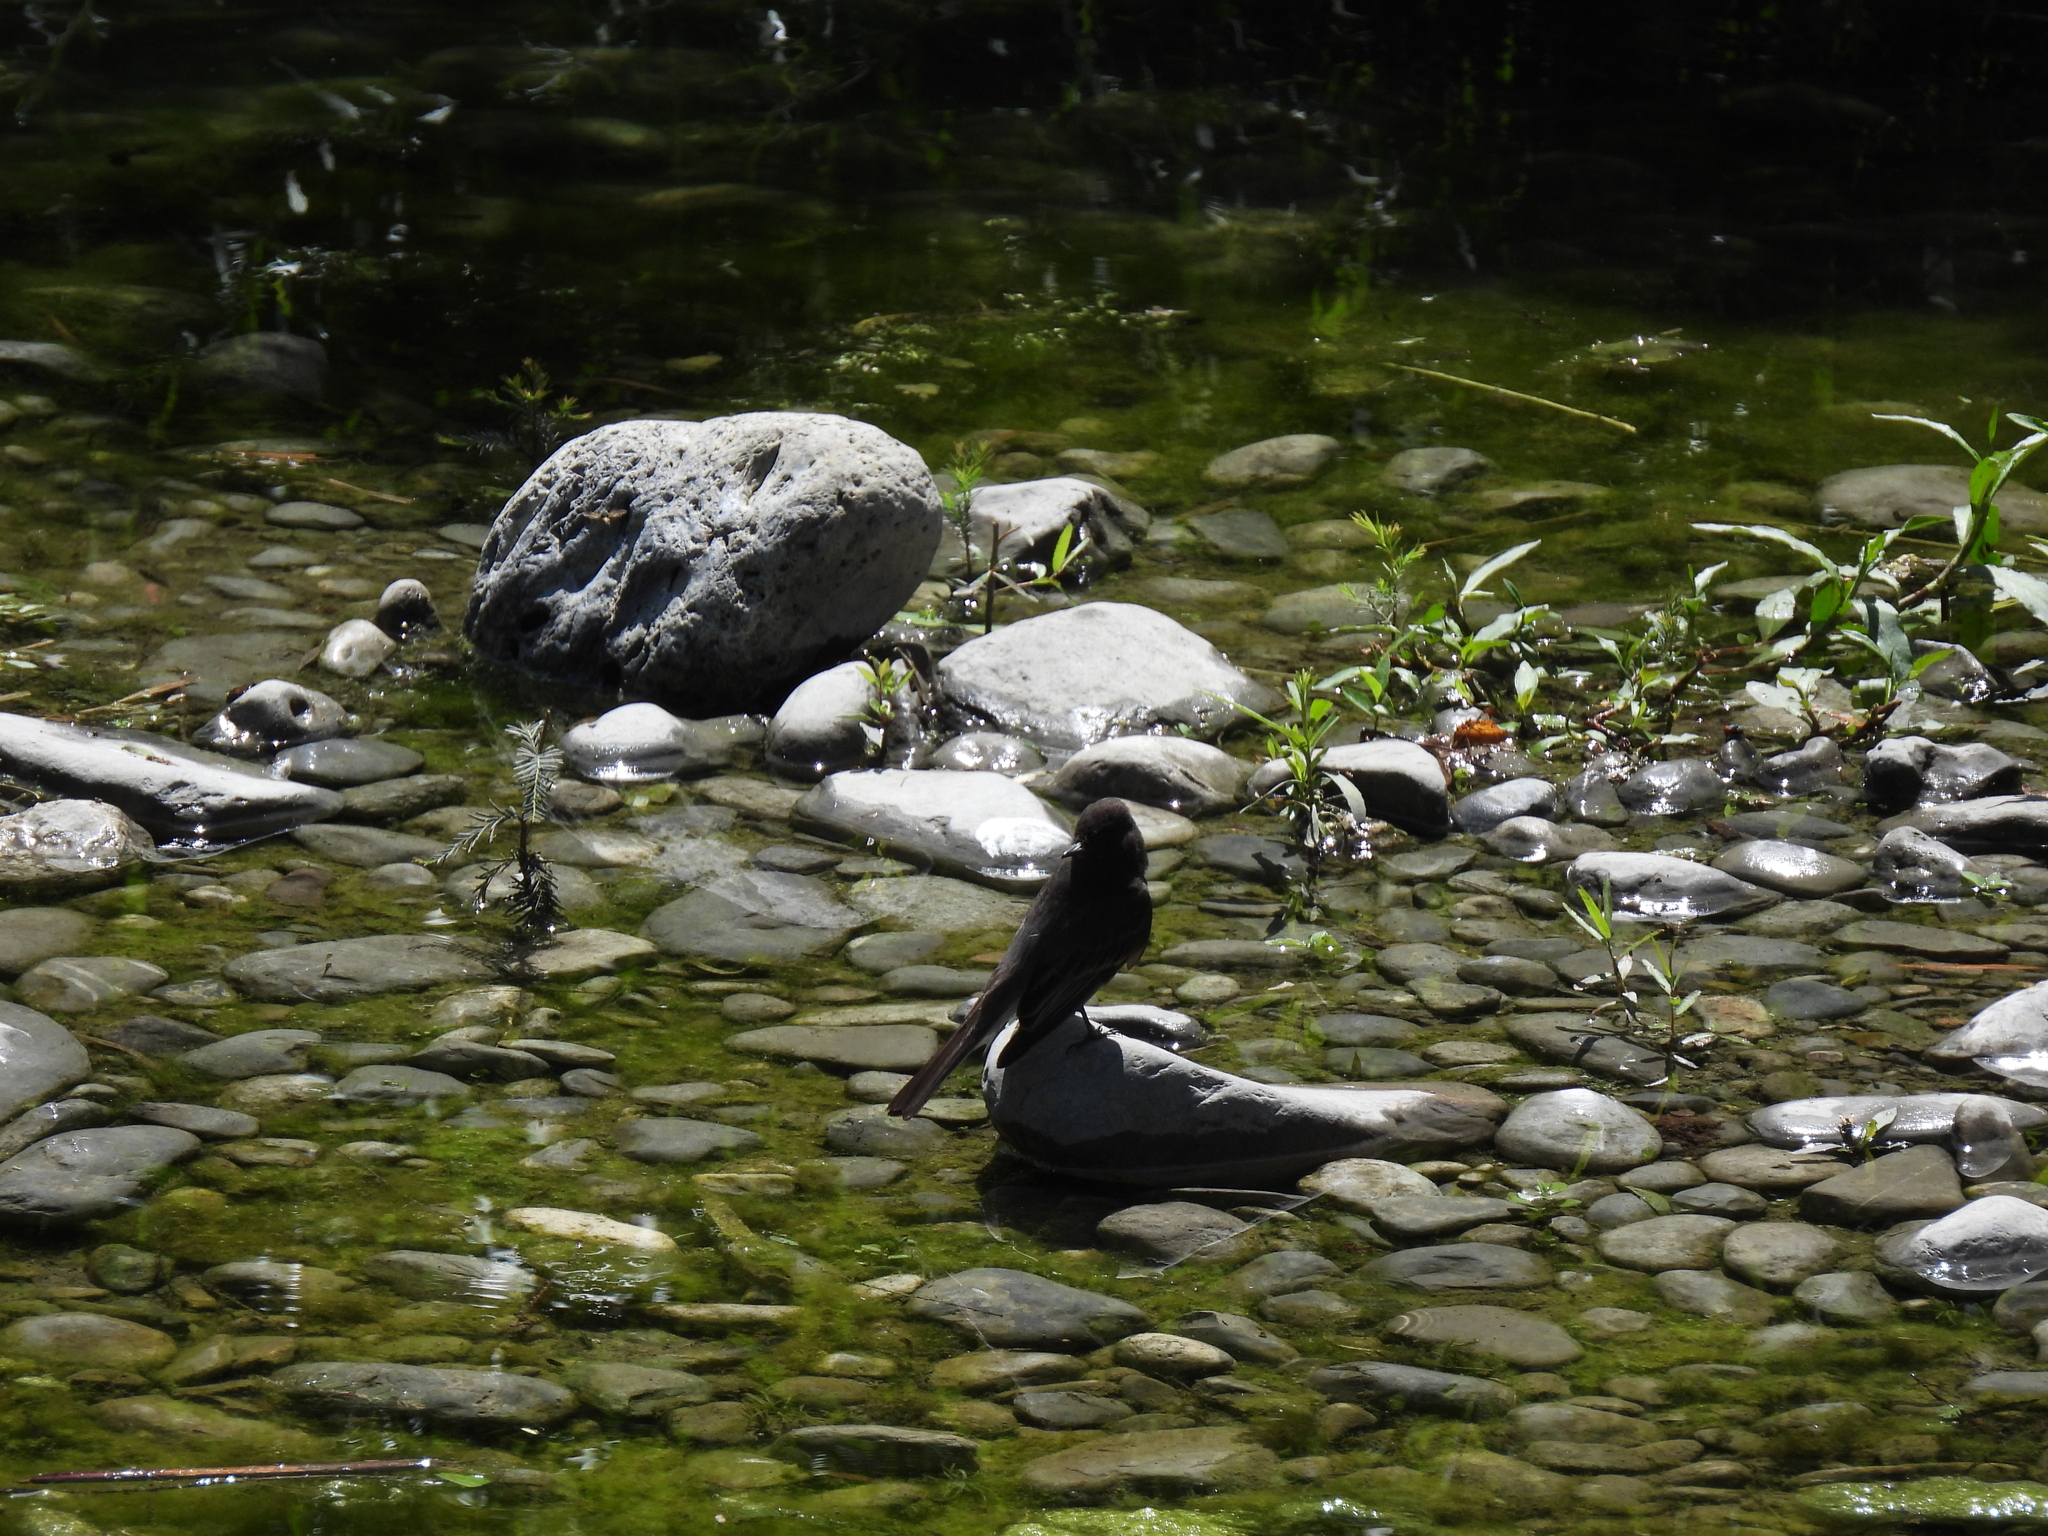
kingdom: Animalia
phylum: Chordata
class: Aves
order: Passeriformes
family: Tyrannidae
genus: Sayornis
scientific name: Sayornis nigricans
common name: Black phoebe
